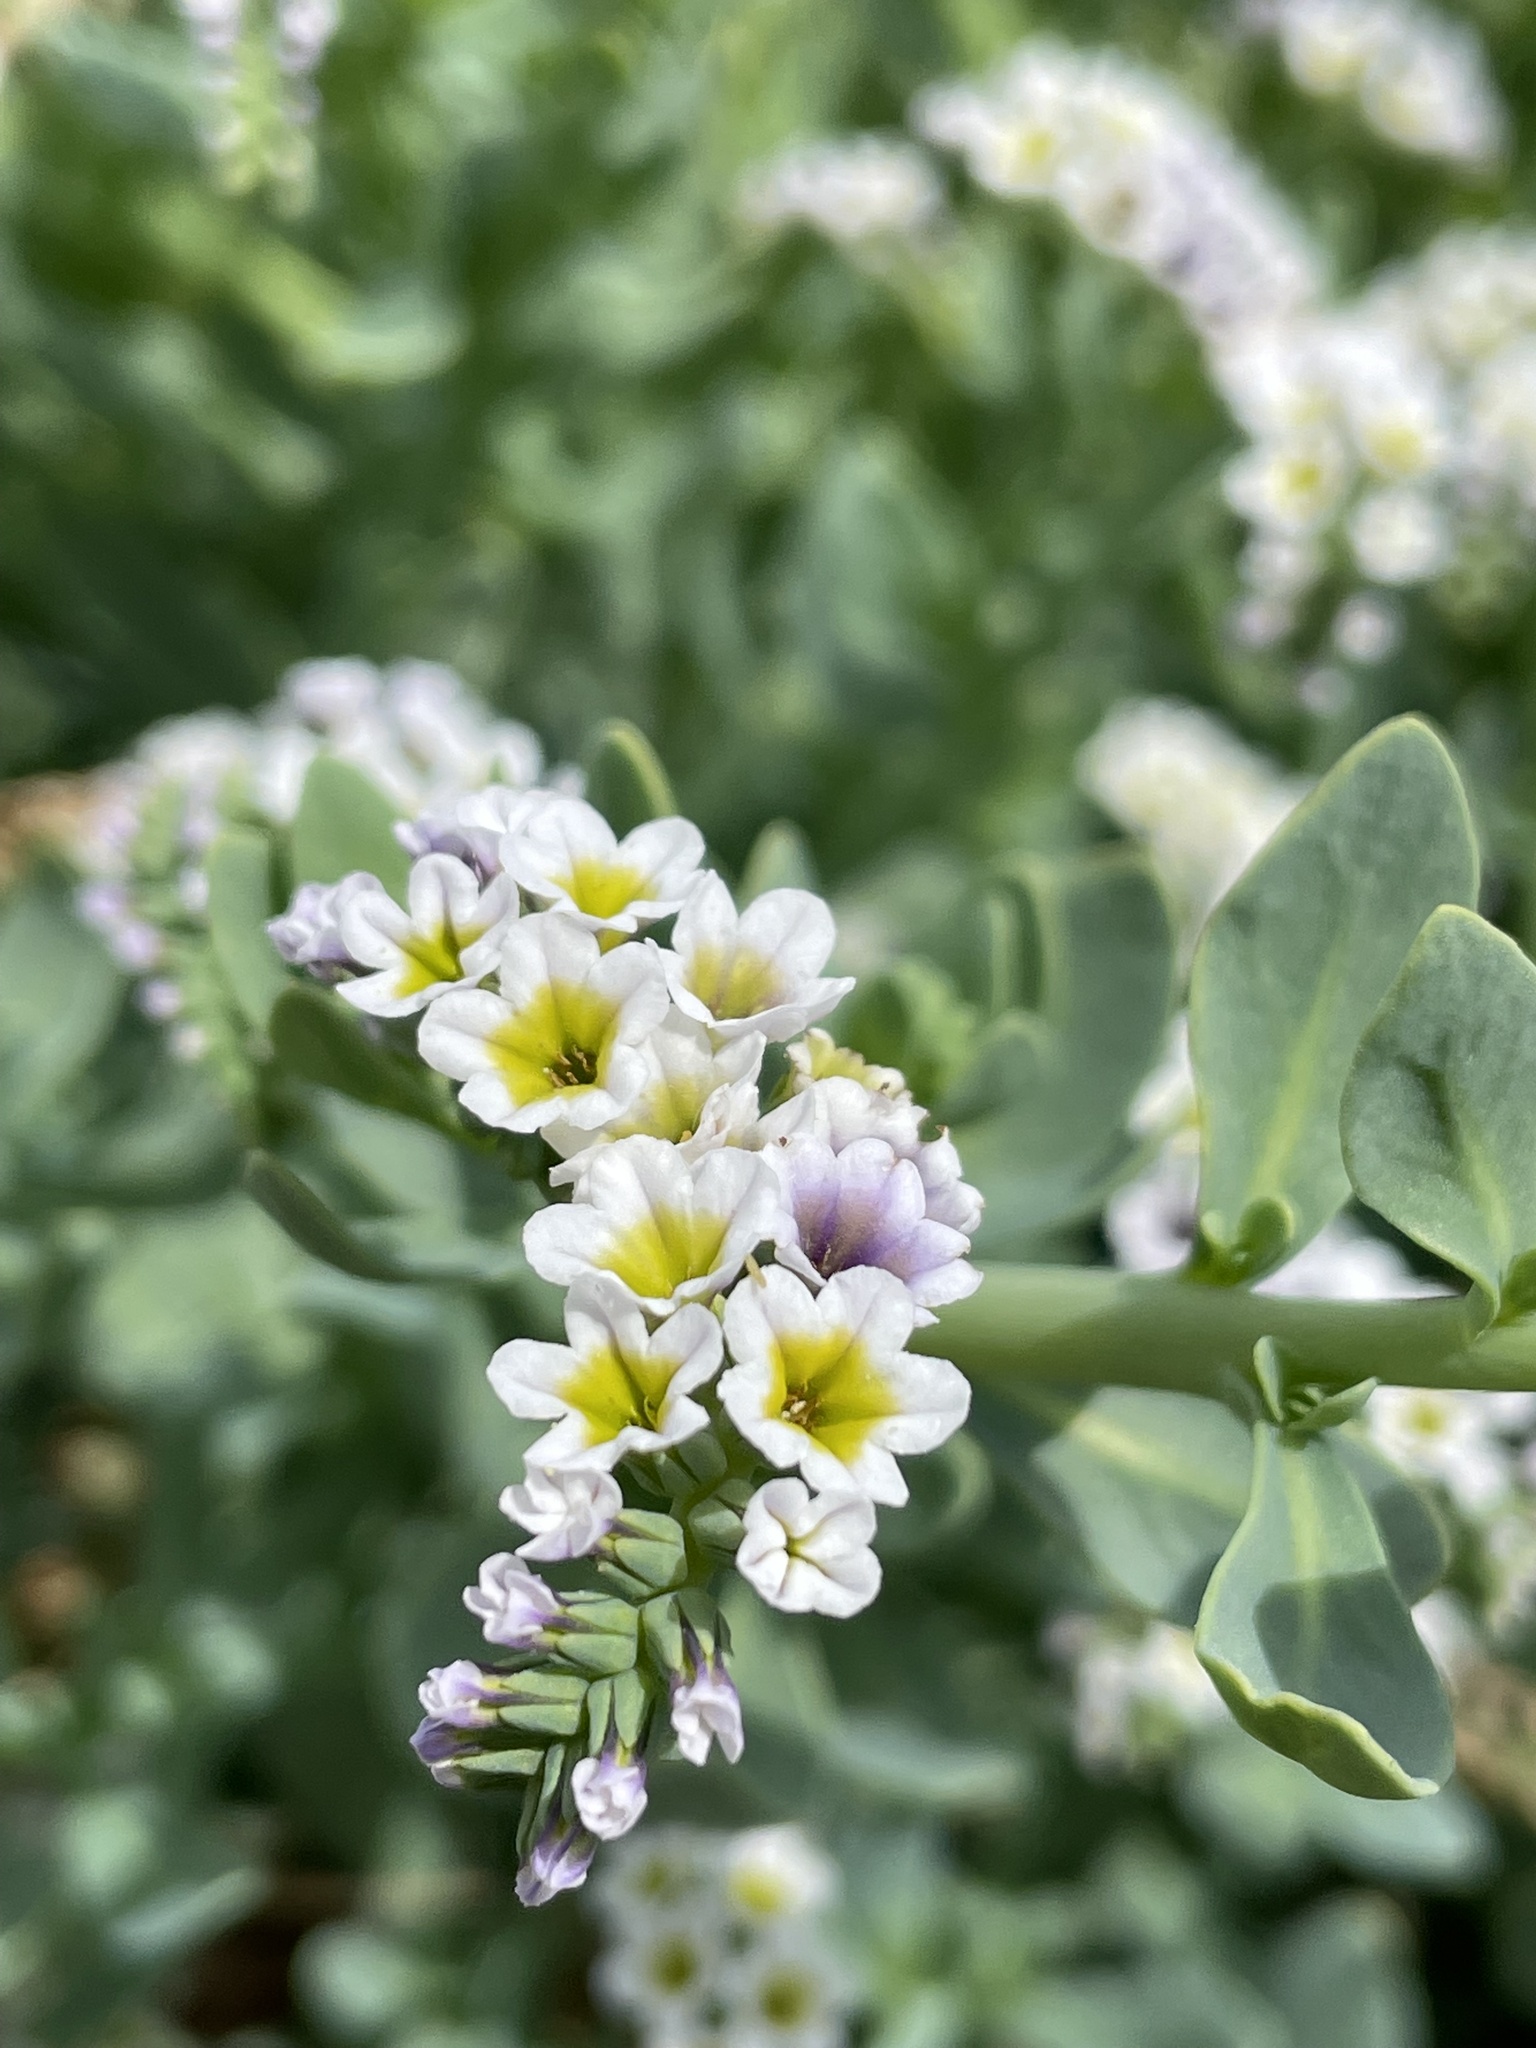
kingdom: Plantae
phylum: Tracheophyta
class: Magnoliopsida
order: Boraginales
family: Heliotropiaceae
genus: Heliotropium
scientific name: Heliotropium curassavicum
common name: Seaside heliotrope
